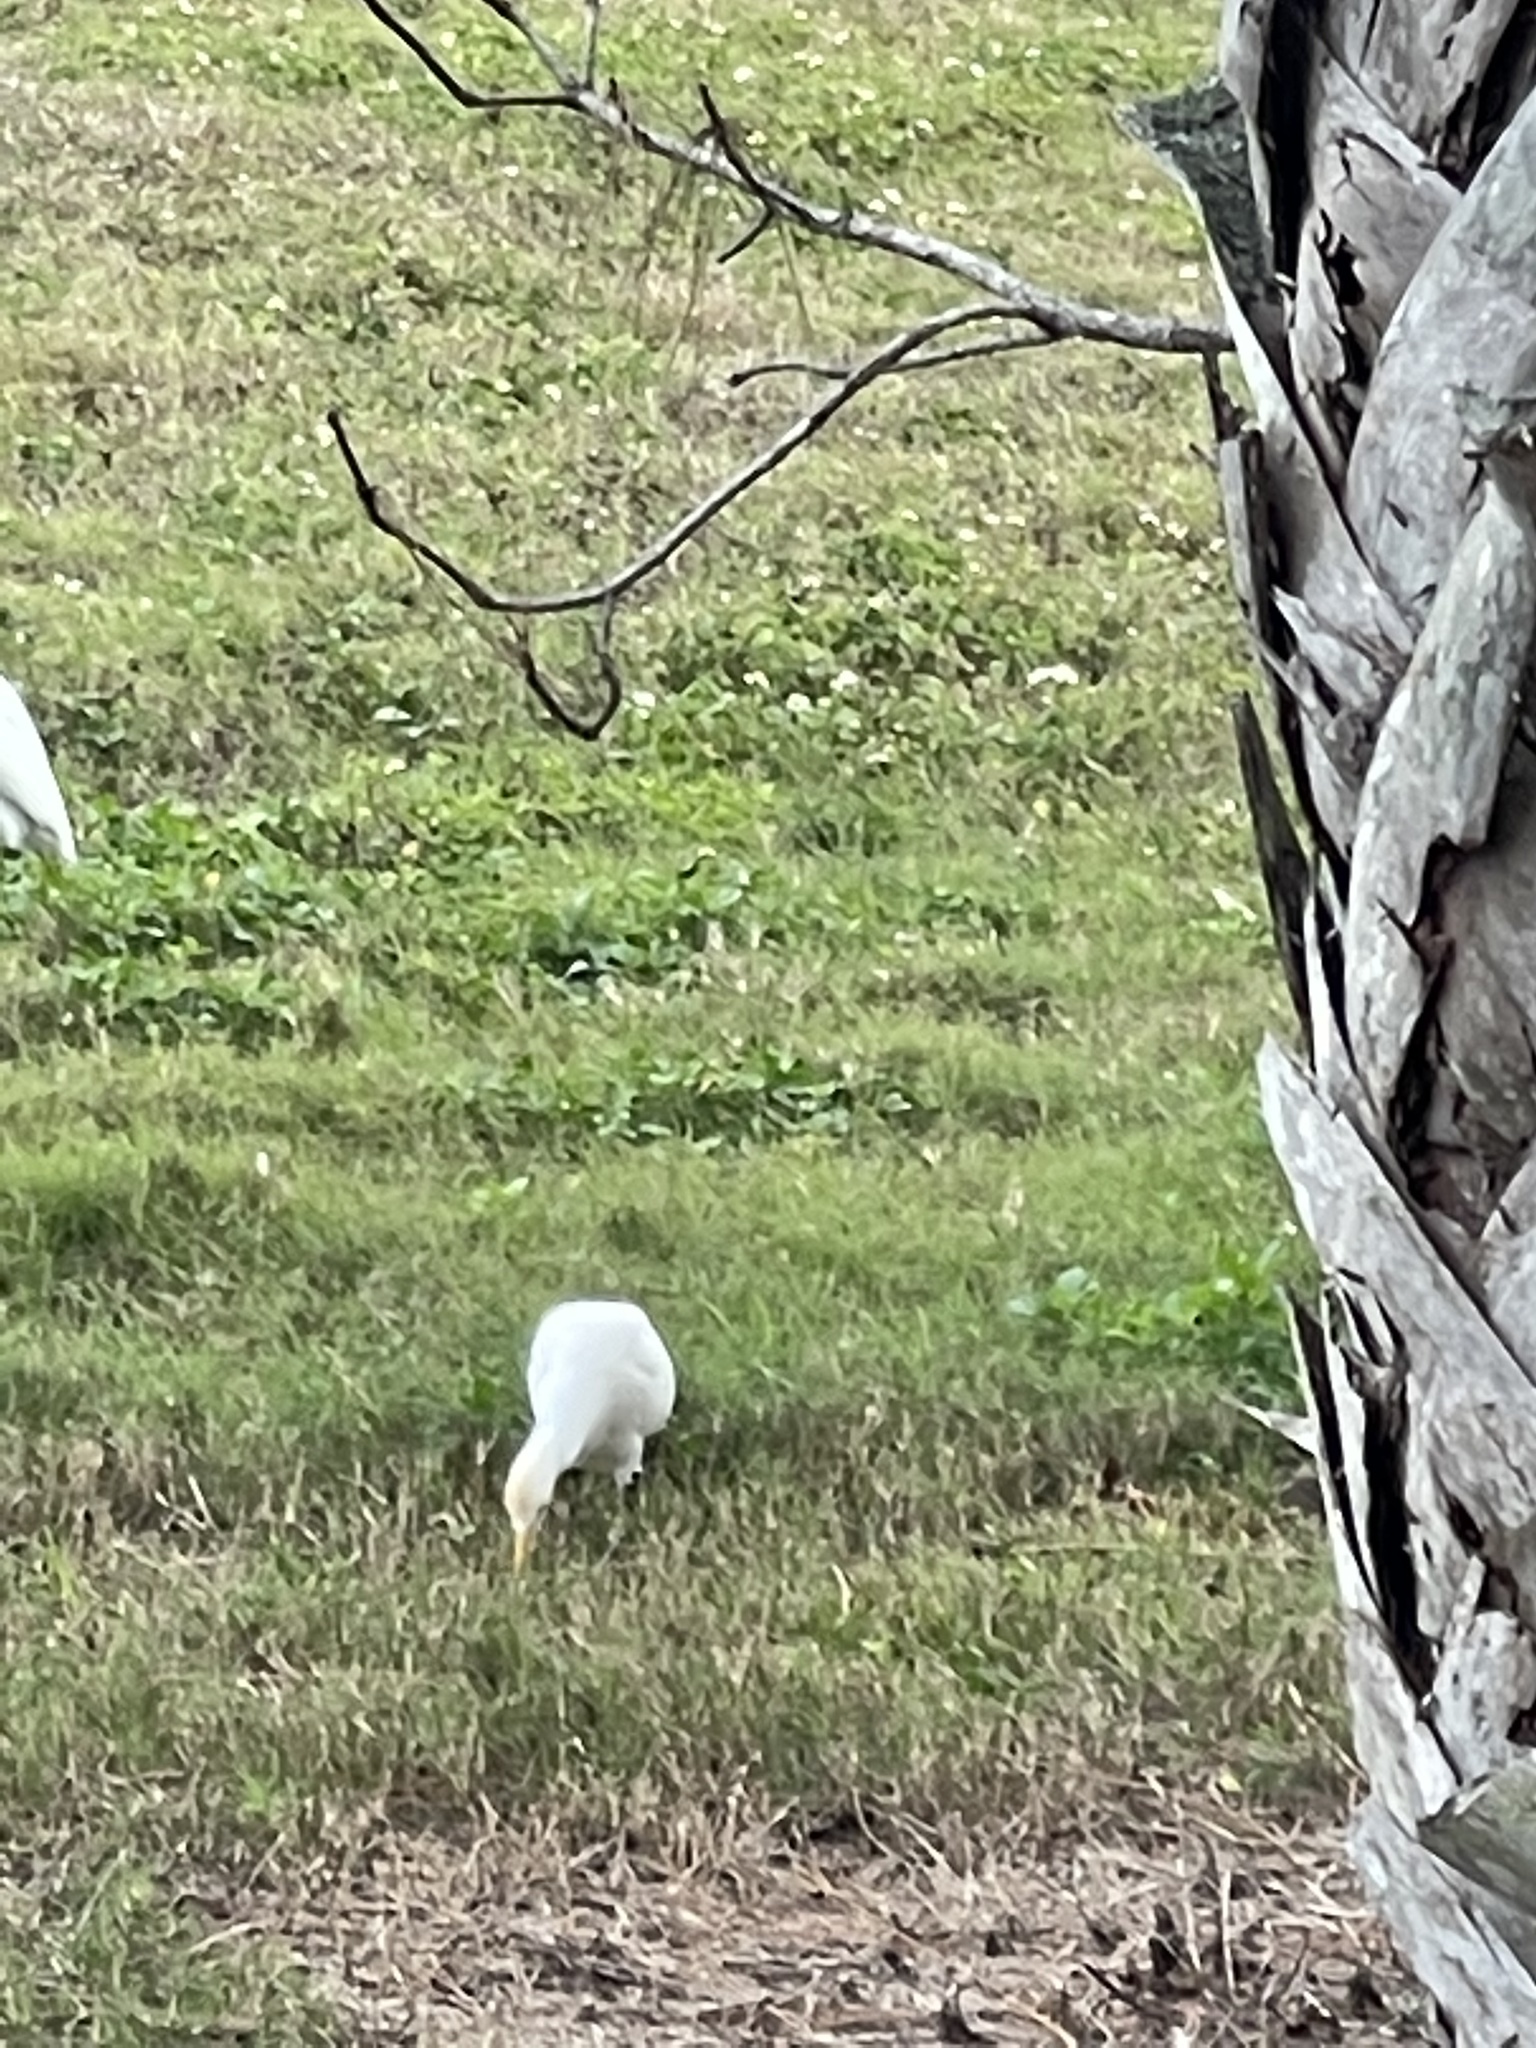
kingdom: Animalia
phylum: Chordata
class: Aves
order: Pelecaniformes
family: Ardeidae
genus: Bubulcus
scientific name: Bubulcus ibis
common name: Cattle egret
